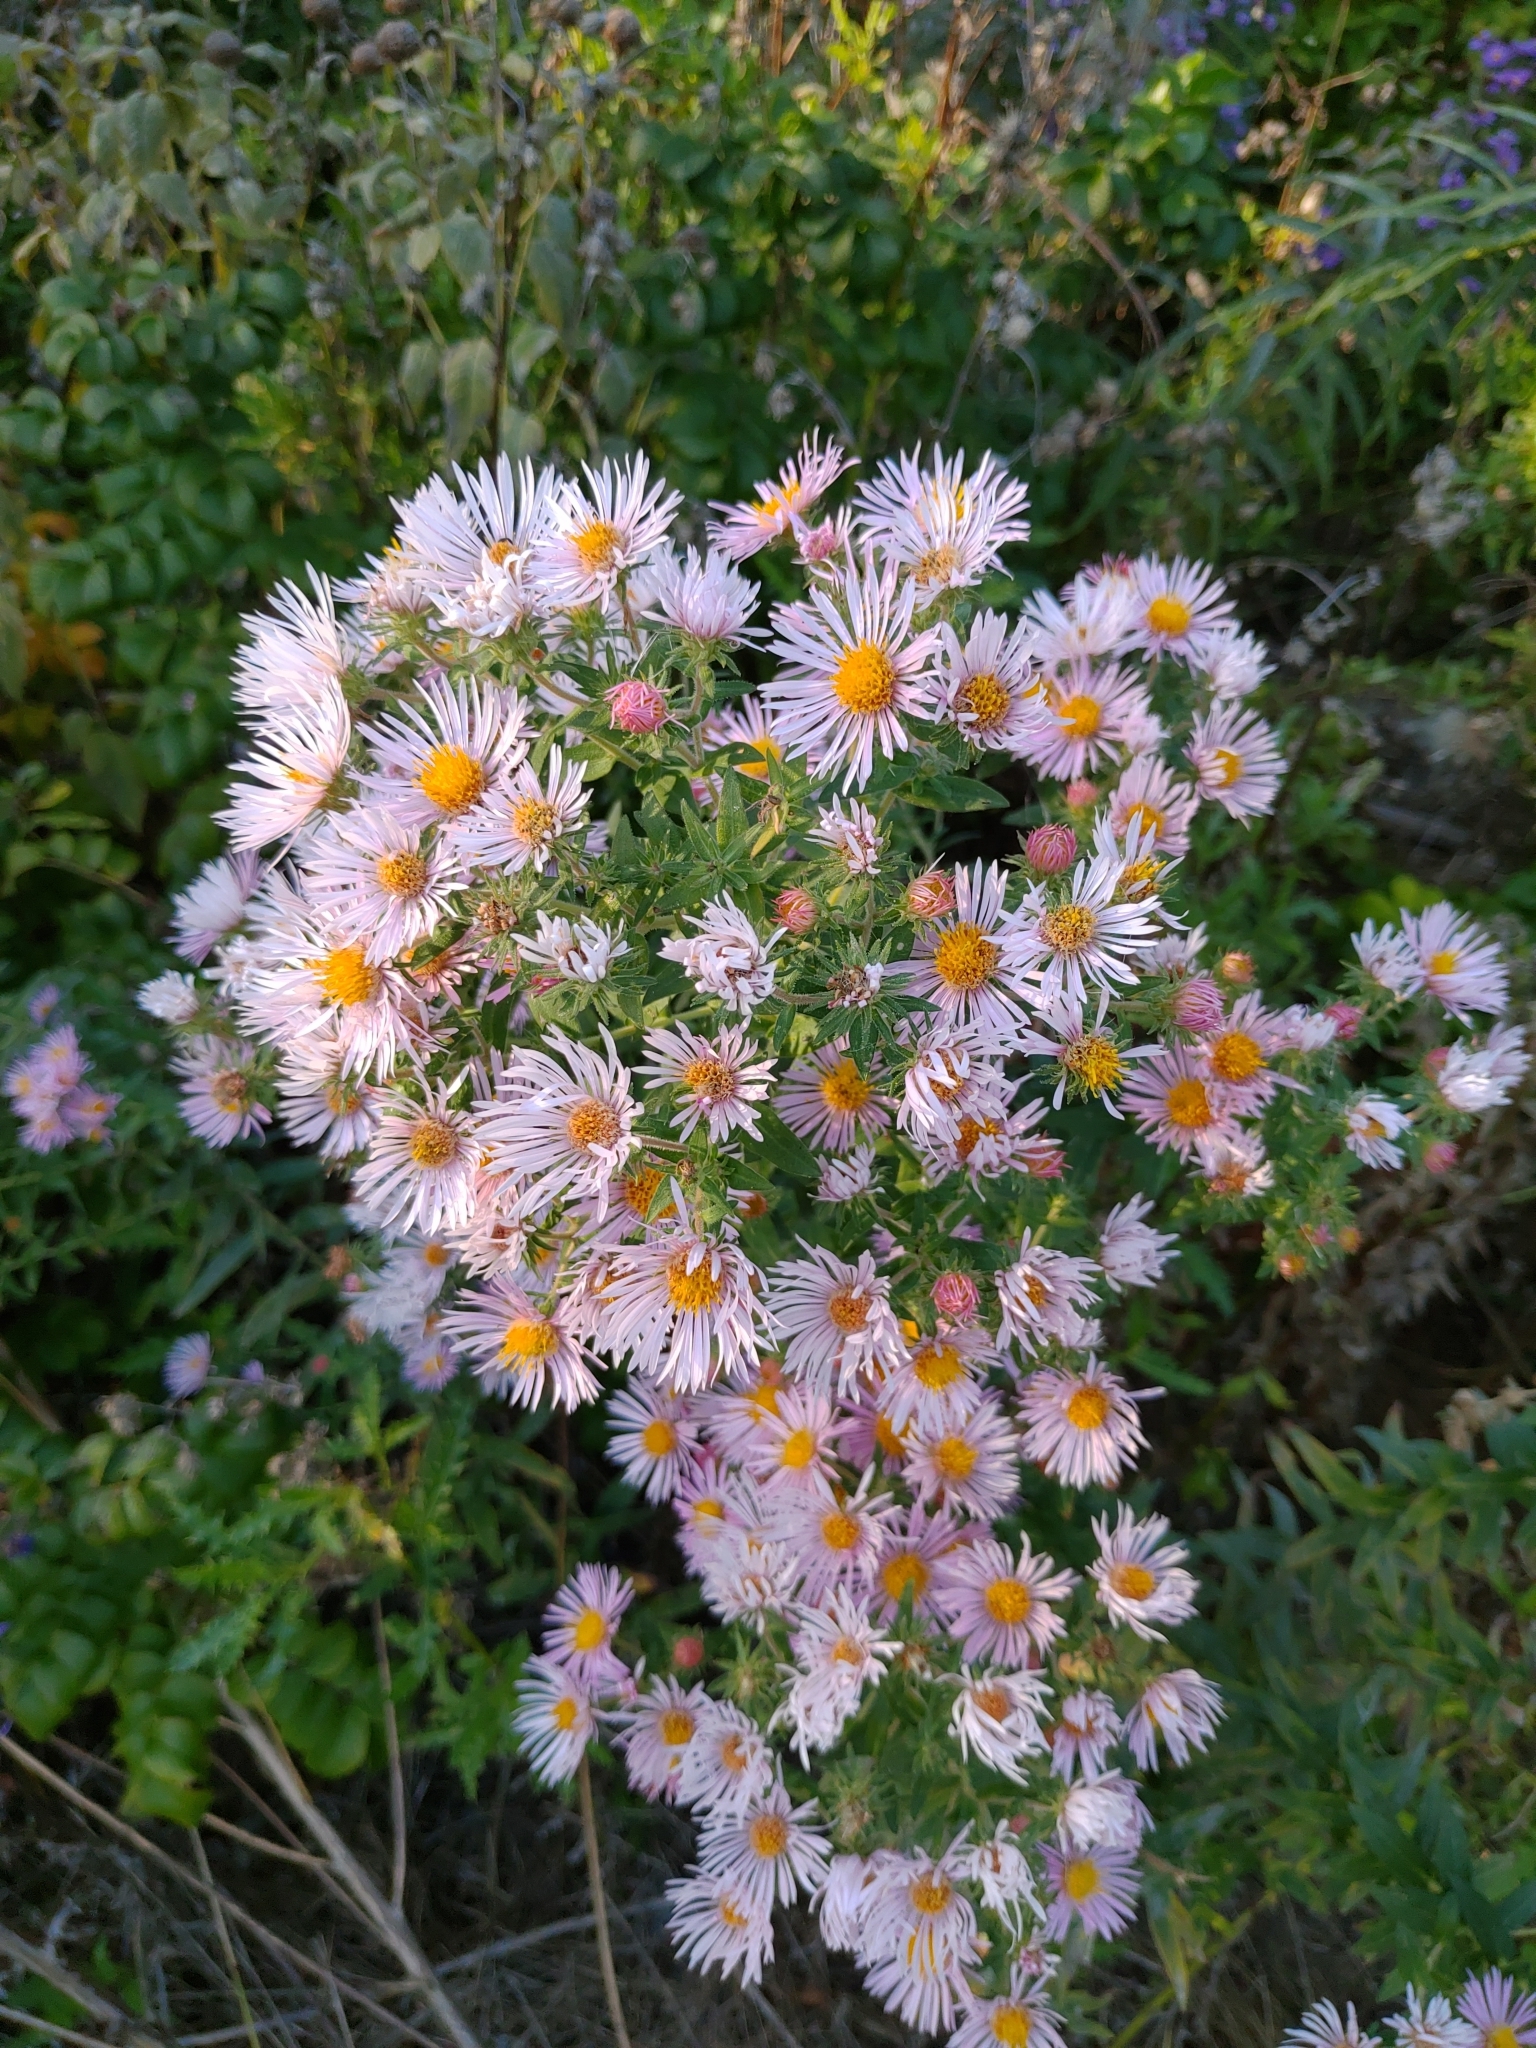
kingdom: Plantae
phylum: Tracheophyta
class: Magnoliopsida
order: Asterales
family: Asteraceae
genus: Symphyotrichum
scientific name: Symphyotrichum novae-angliae
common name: Michaelmas daisy
